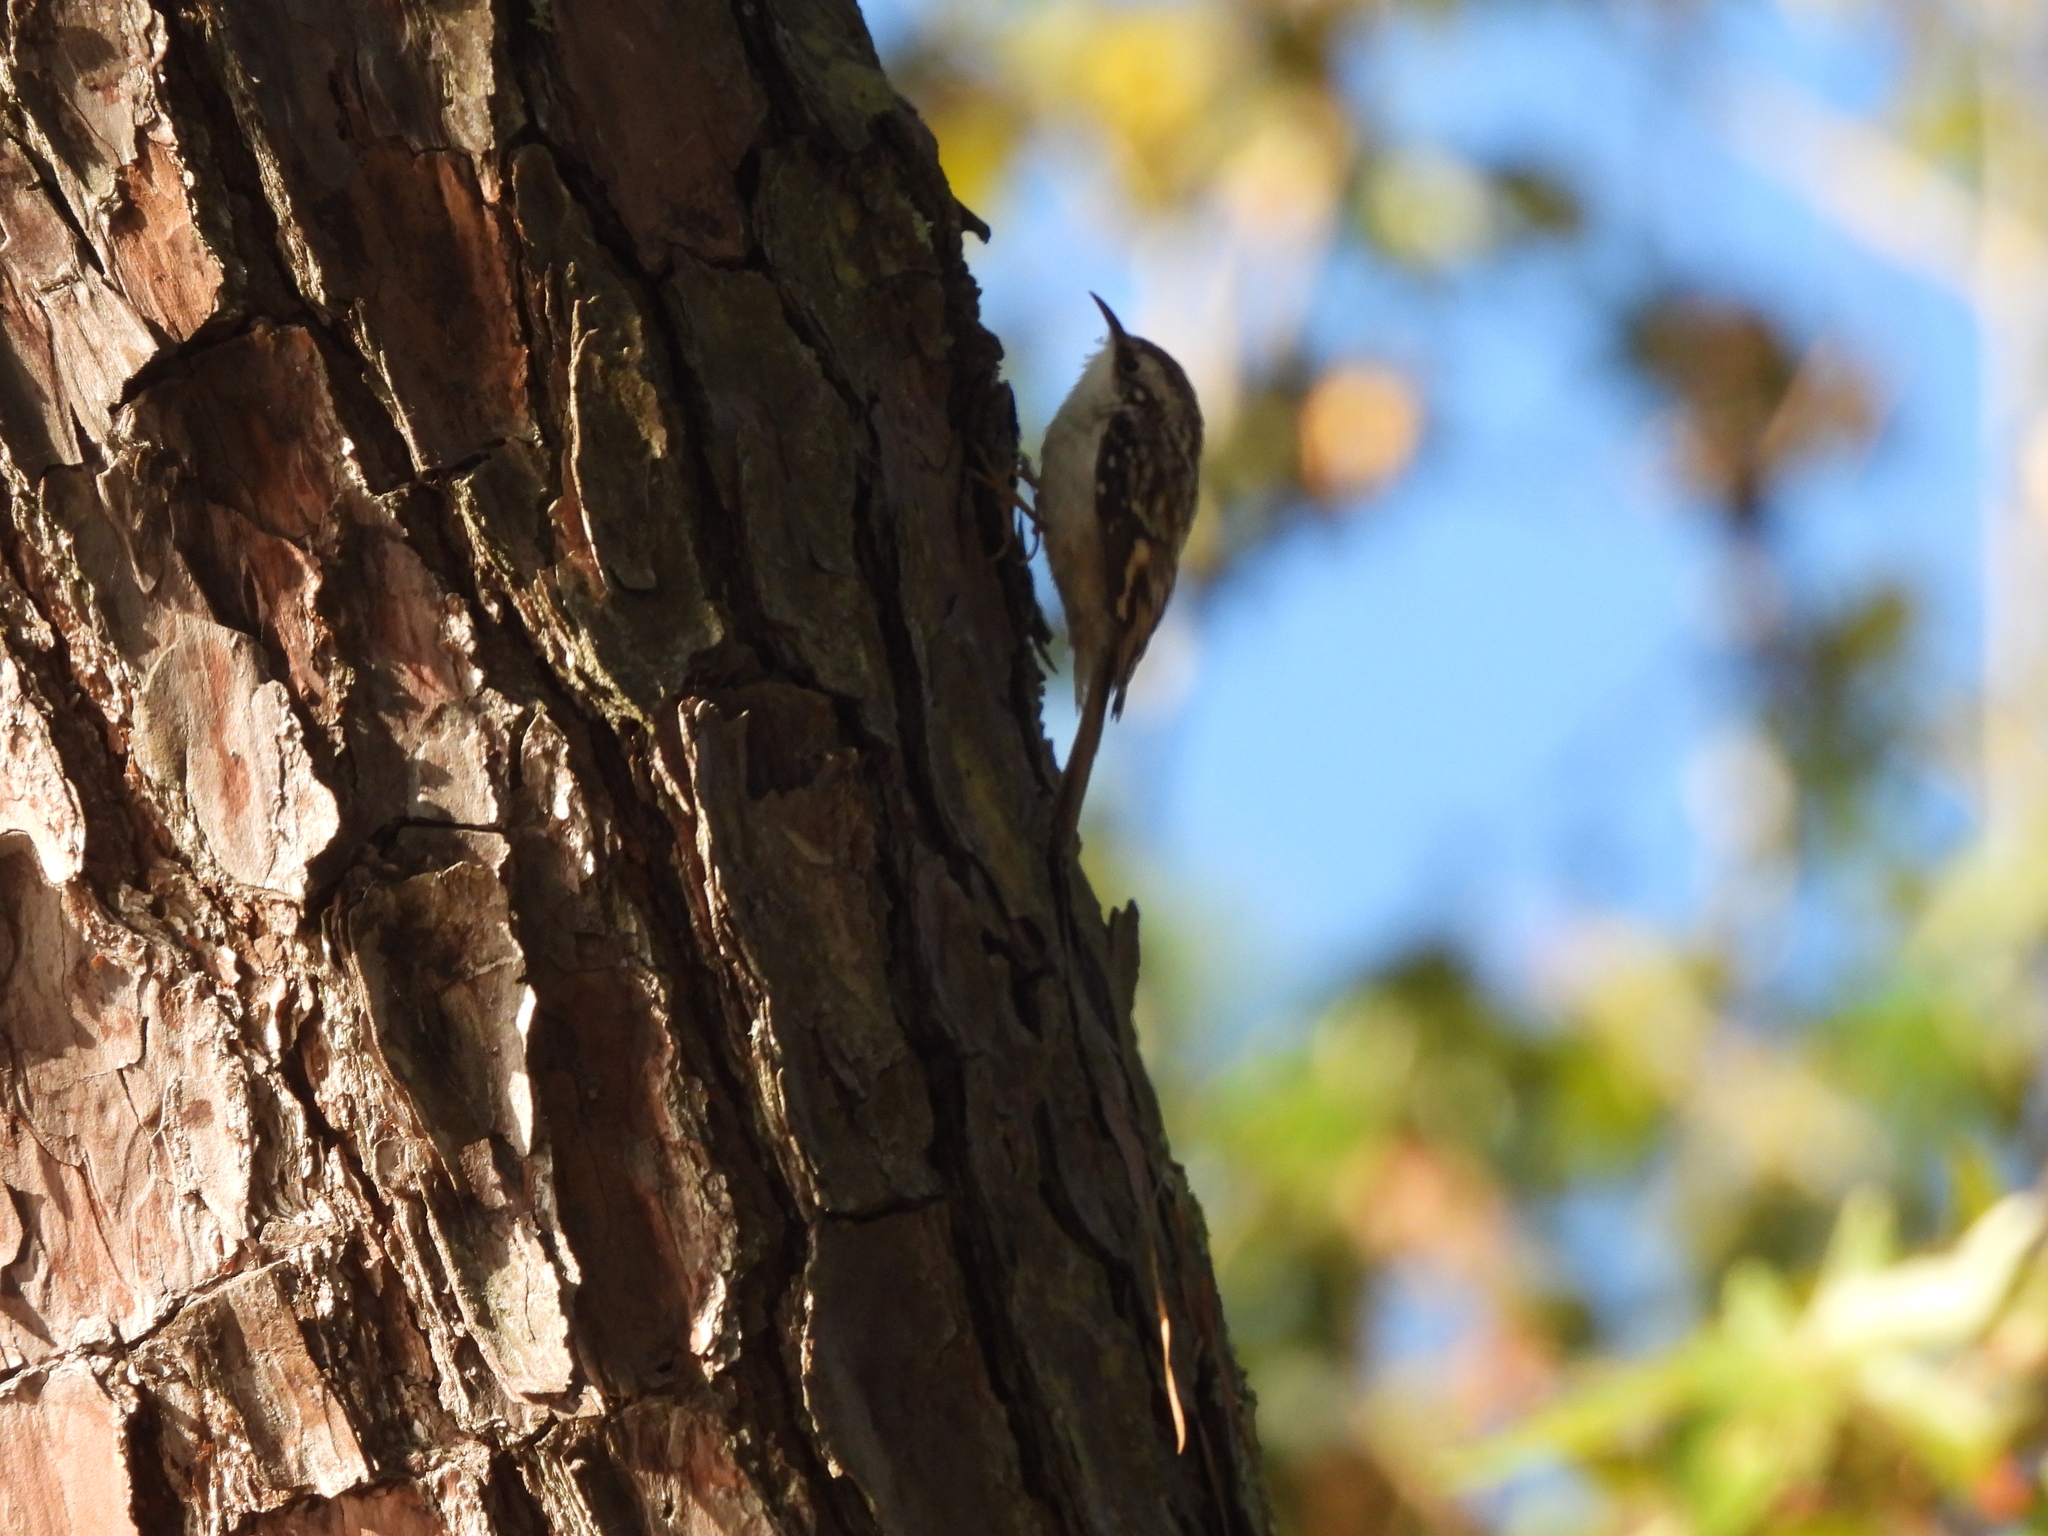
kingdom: Animalia
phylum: Chordata
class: Aves
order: Passeriformes
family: Certhiidae
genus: Certhia
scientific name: Certhia americana
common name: Brown creeper
